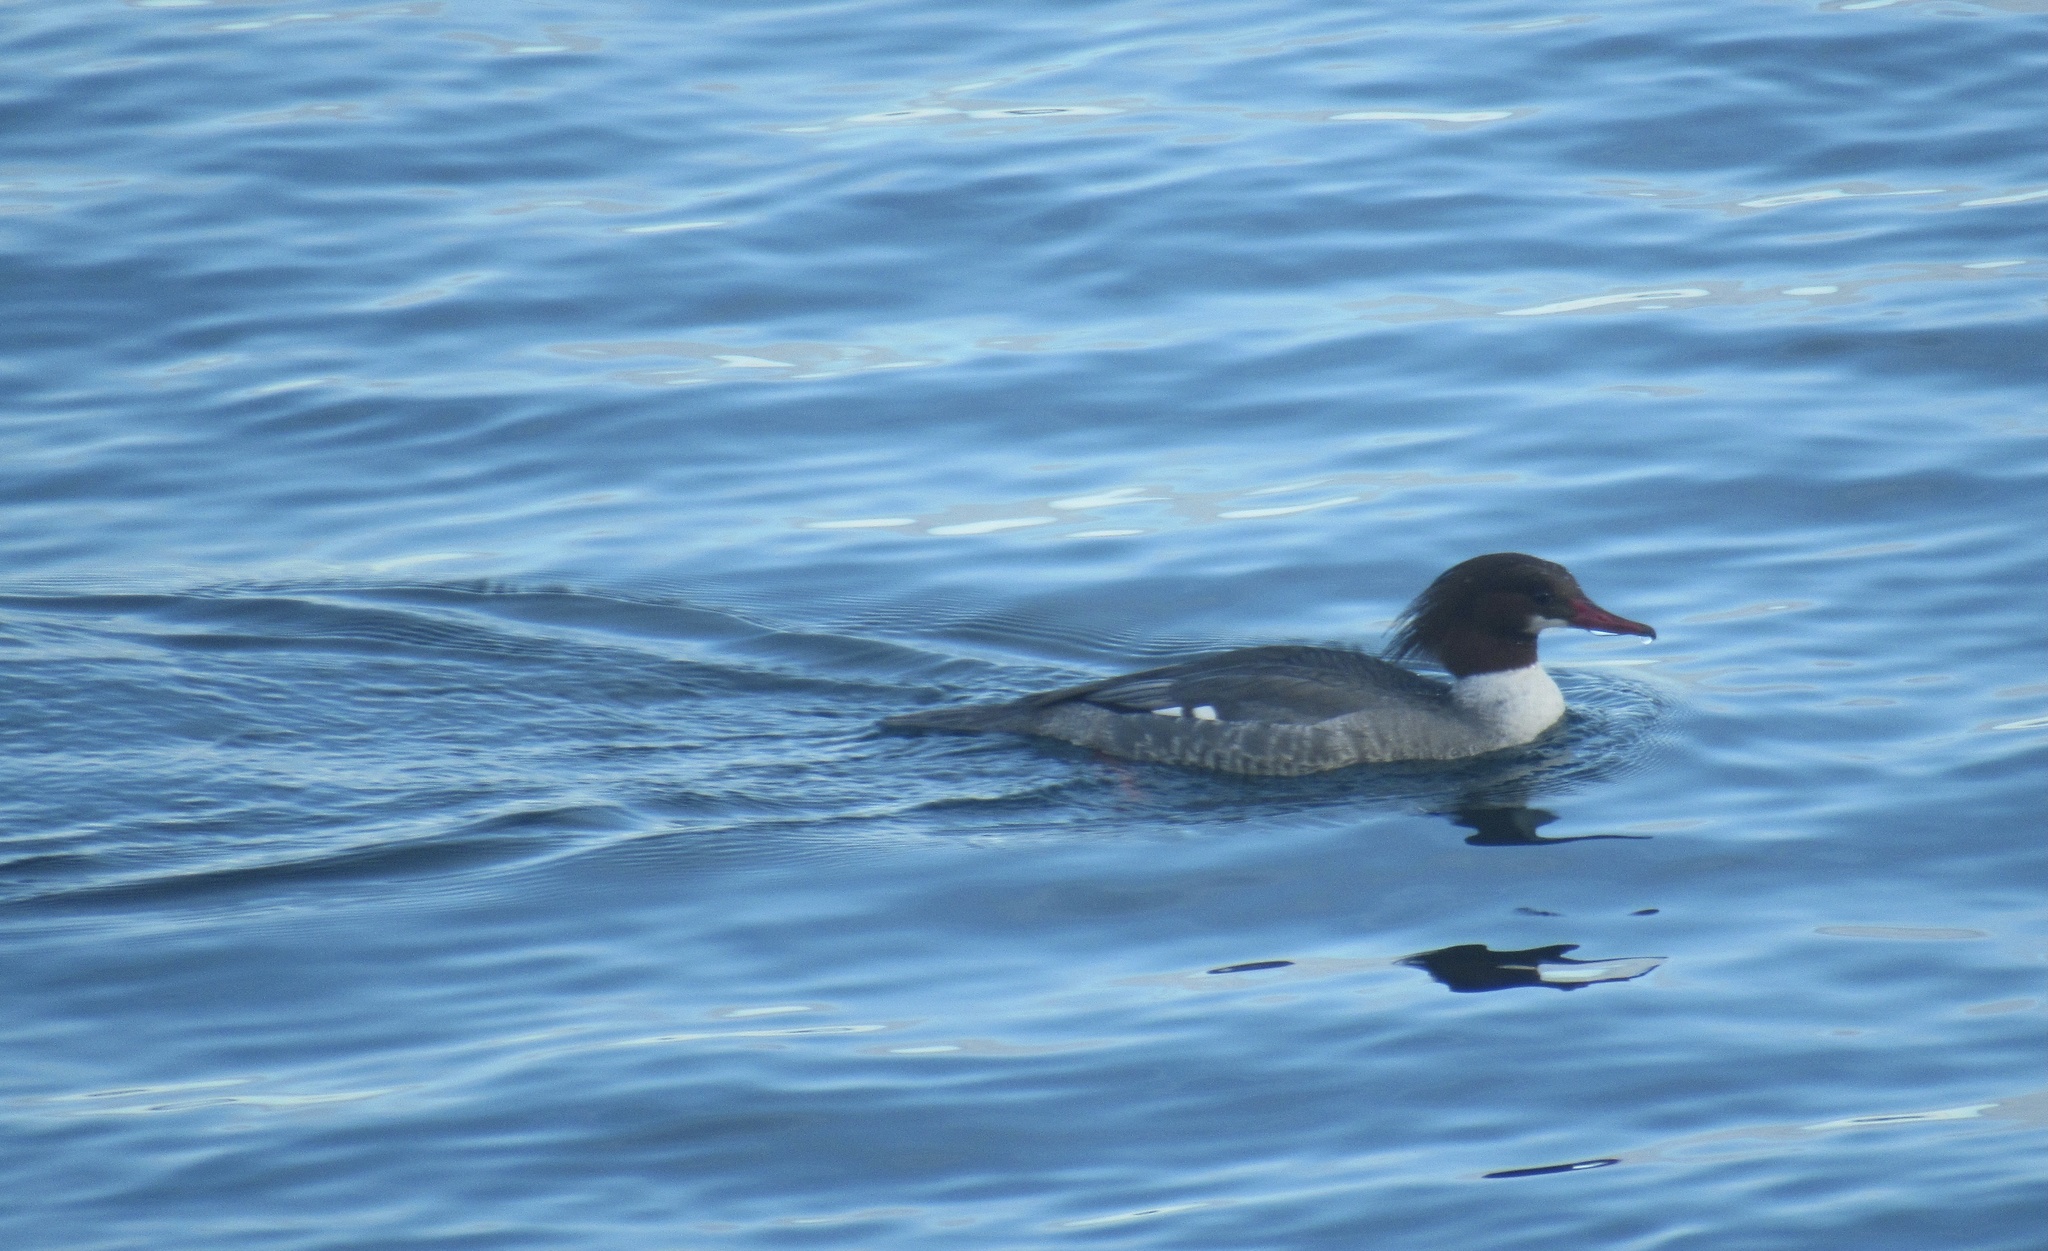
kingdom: Animalia
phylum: Chordata
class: Aves
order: Anseriformes
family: Anatidae
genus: Mergus
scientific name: Mergus merganser
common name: Common merganser
